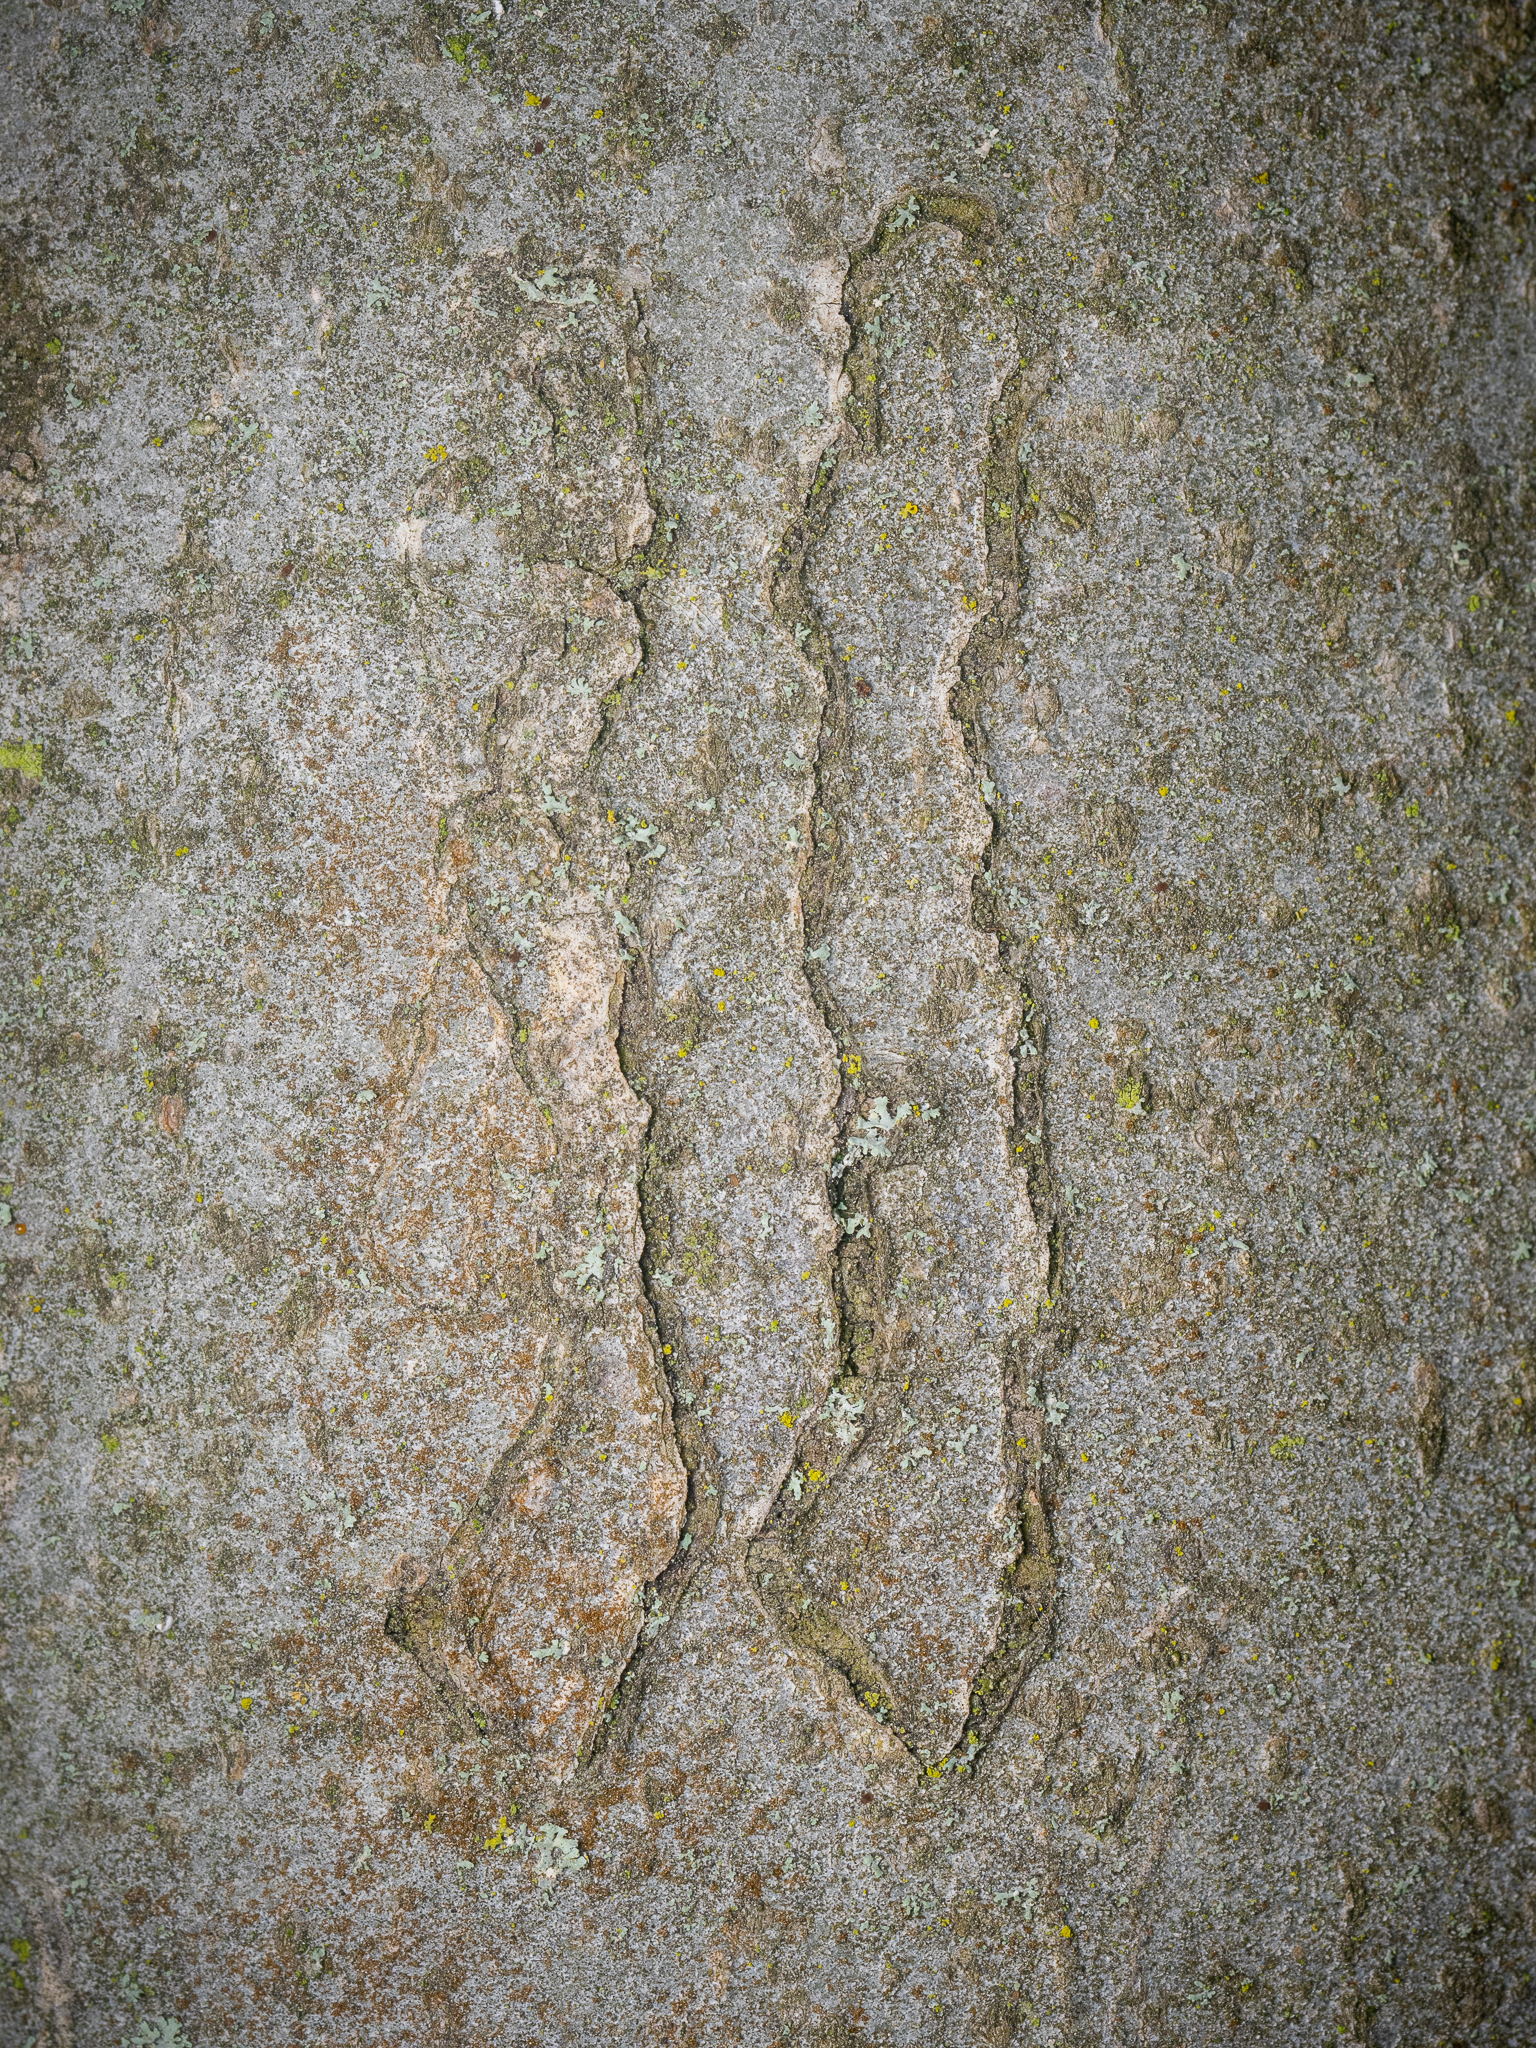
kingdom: Animalia
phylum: Arthropoda
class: Insecta
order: Lepidoptera
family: Nepticulidae
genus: Zimmermannia
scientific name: Zimmermannia liebwerdella
